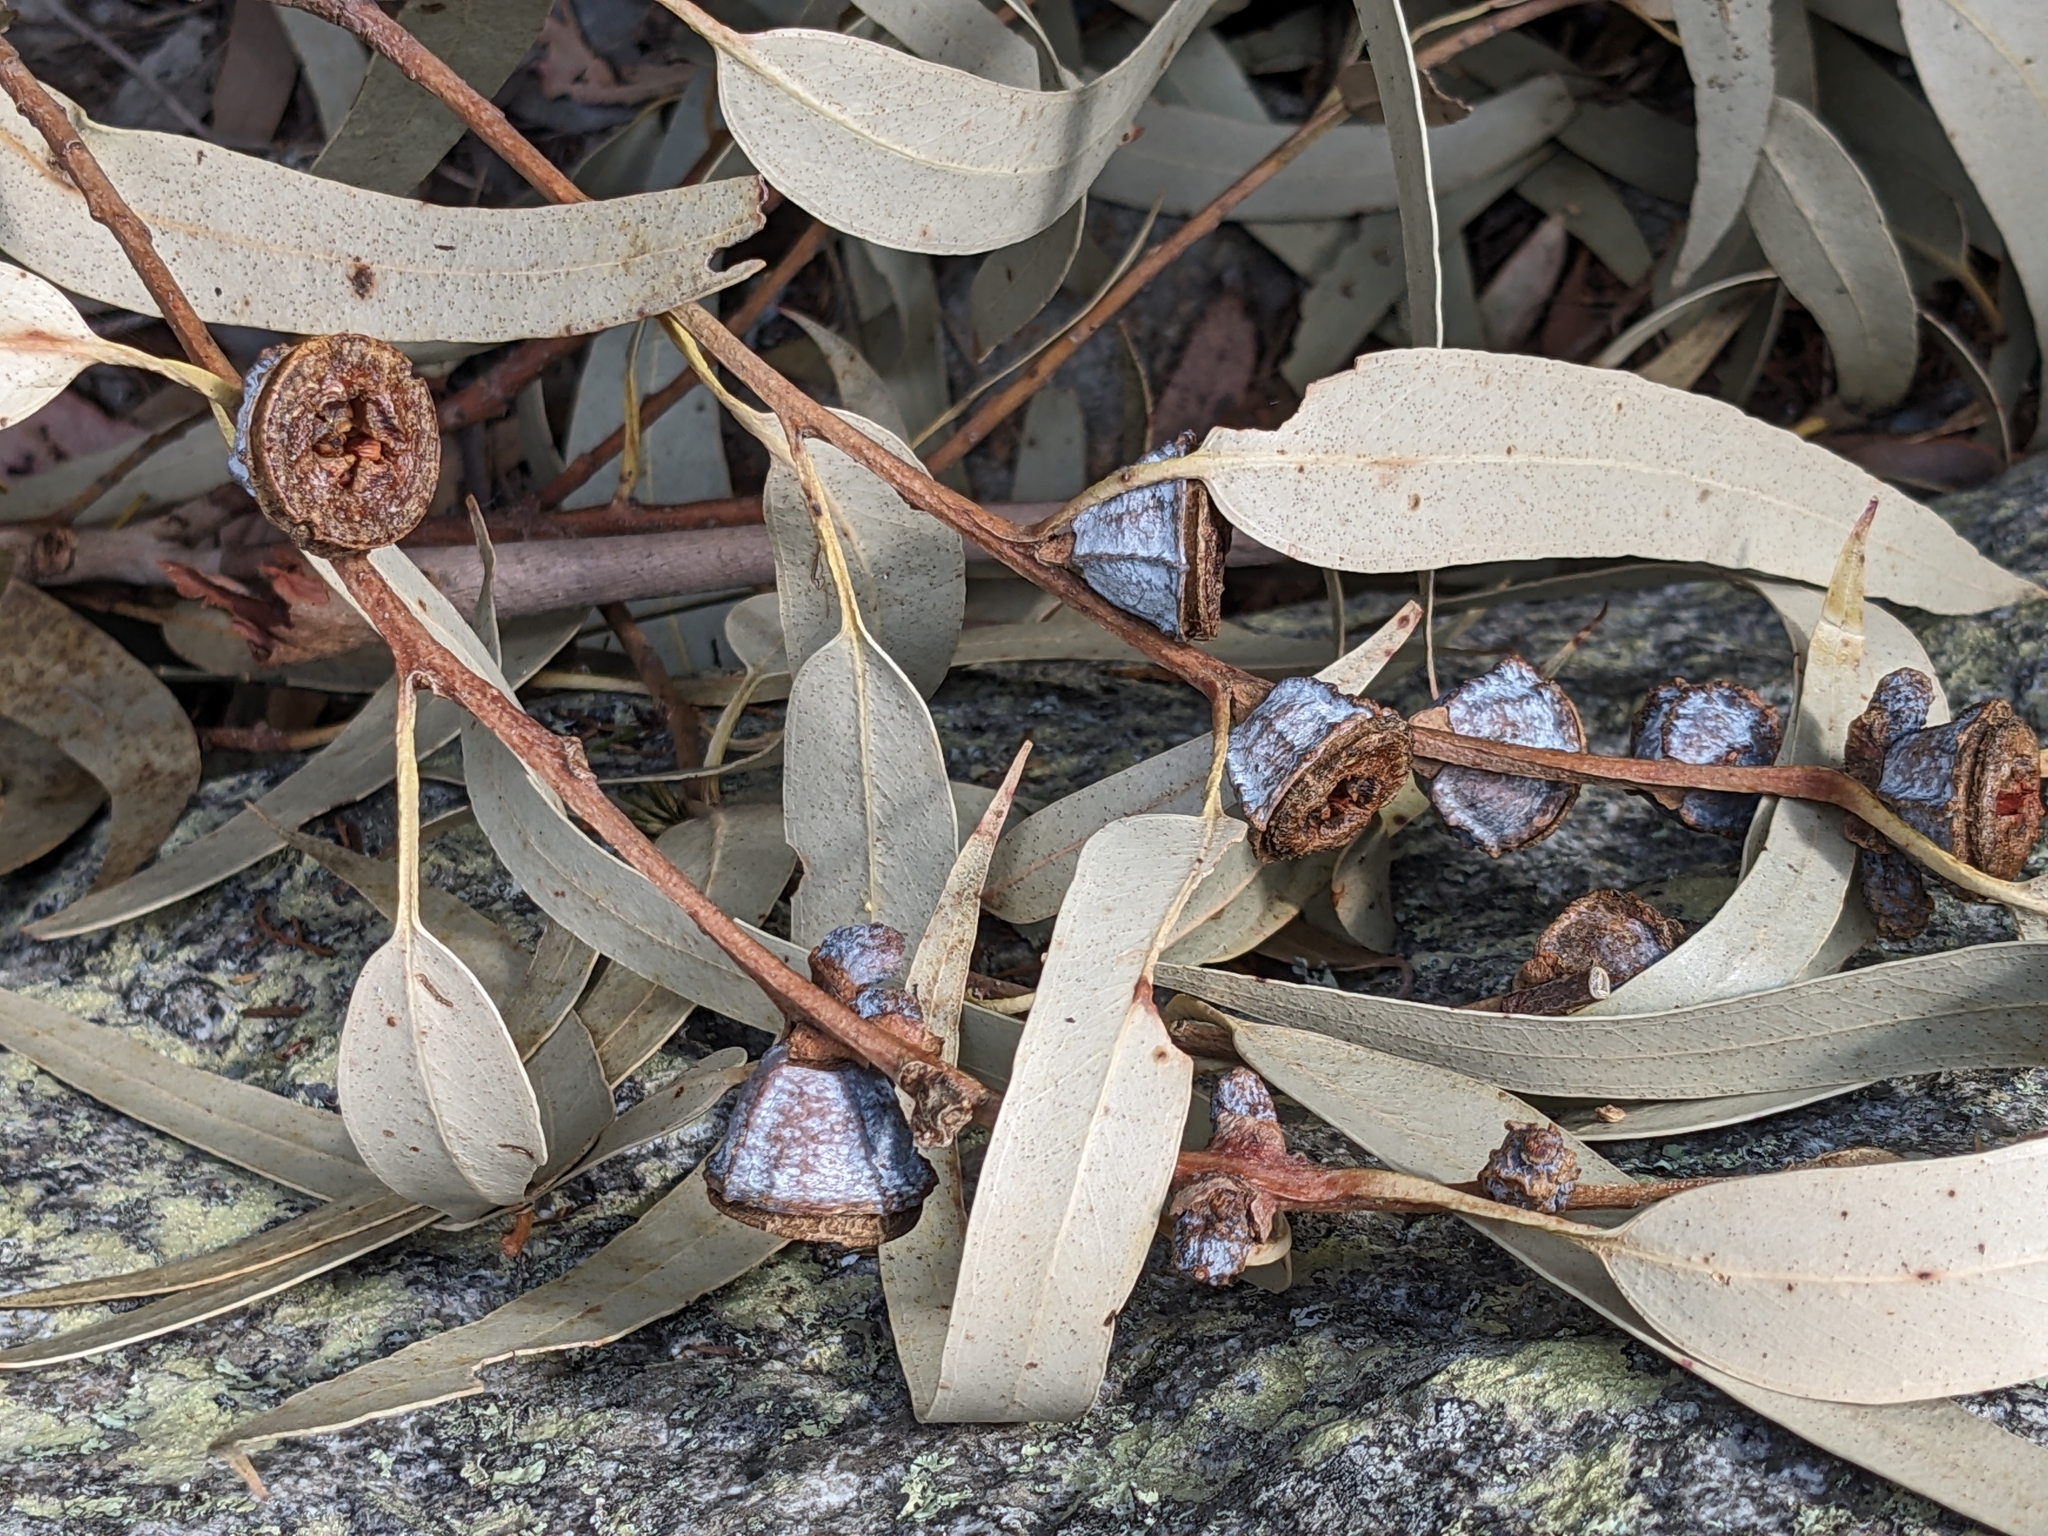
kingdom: Plantae
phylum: Tracheophyta
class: Magnoliopsida
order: Myrtales
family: Myrtaceae
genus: Eucalyptus
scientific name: Eucalyptus globulus
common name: Southern blue-gum
